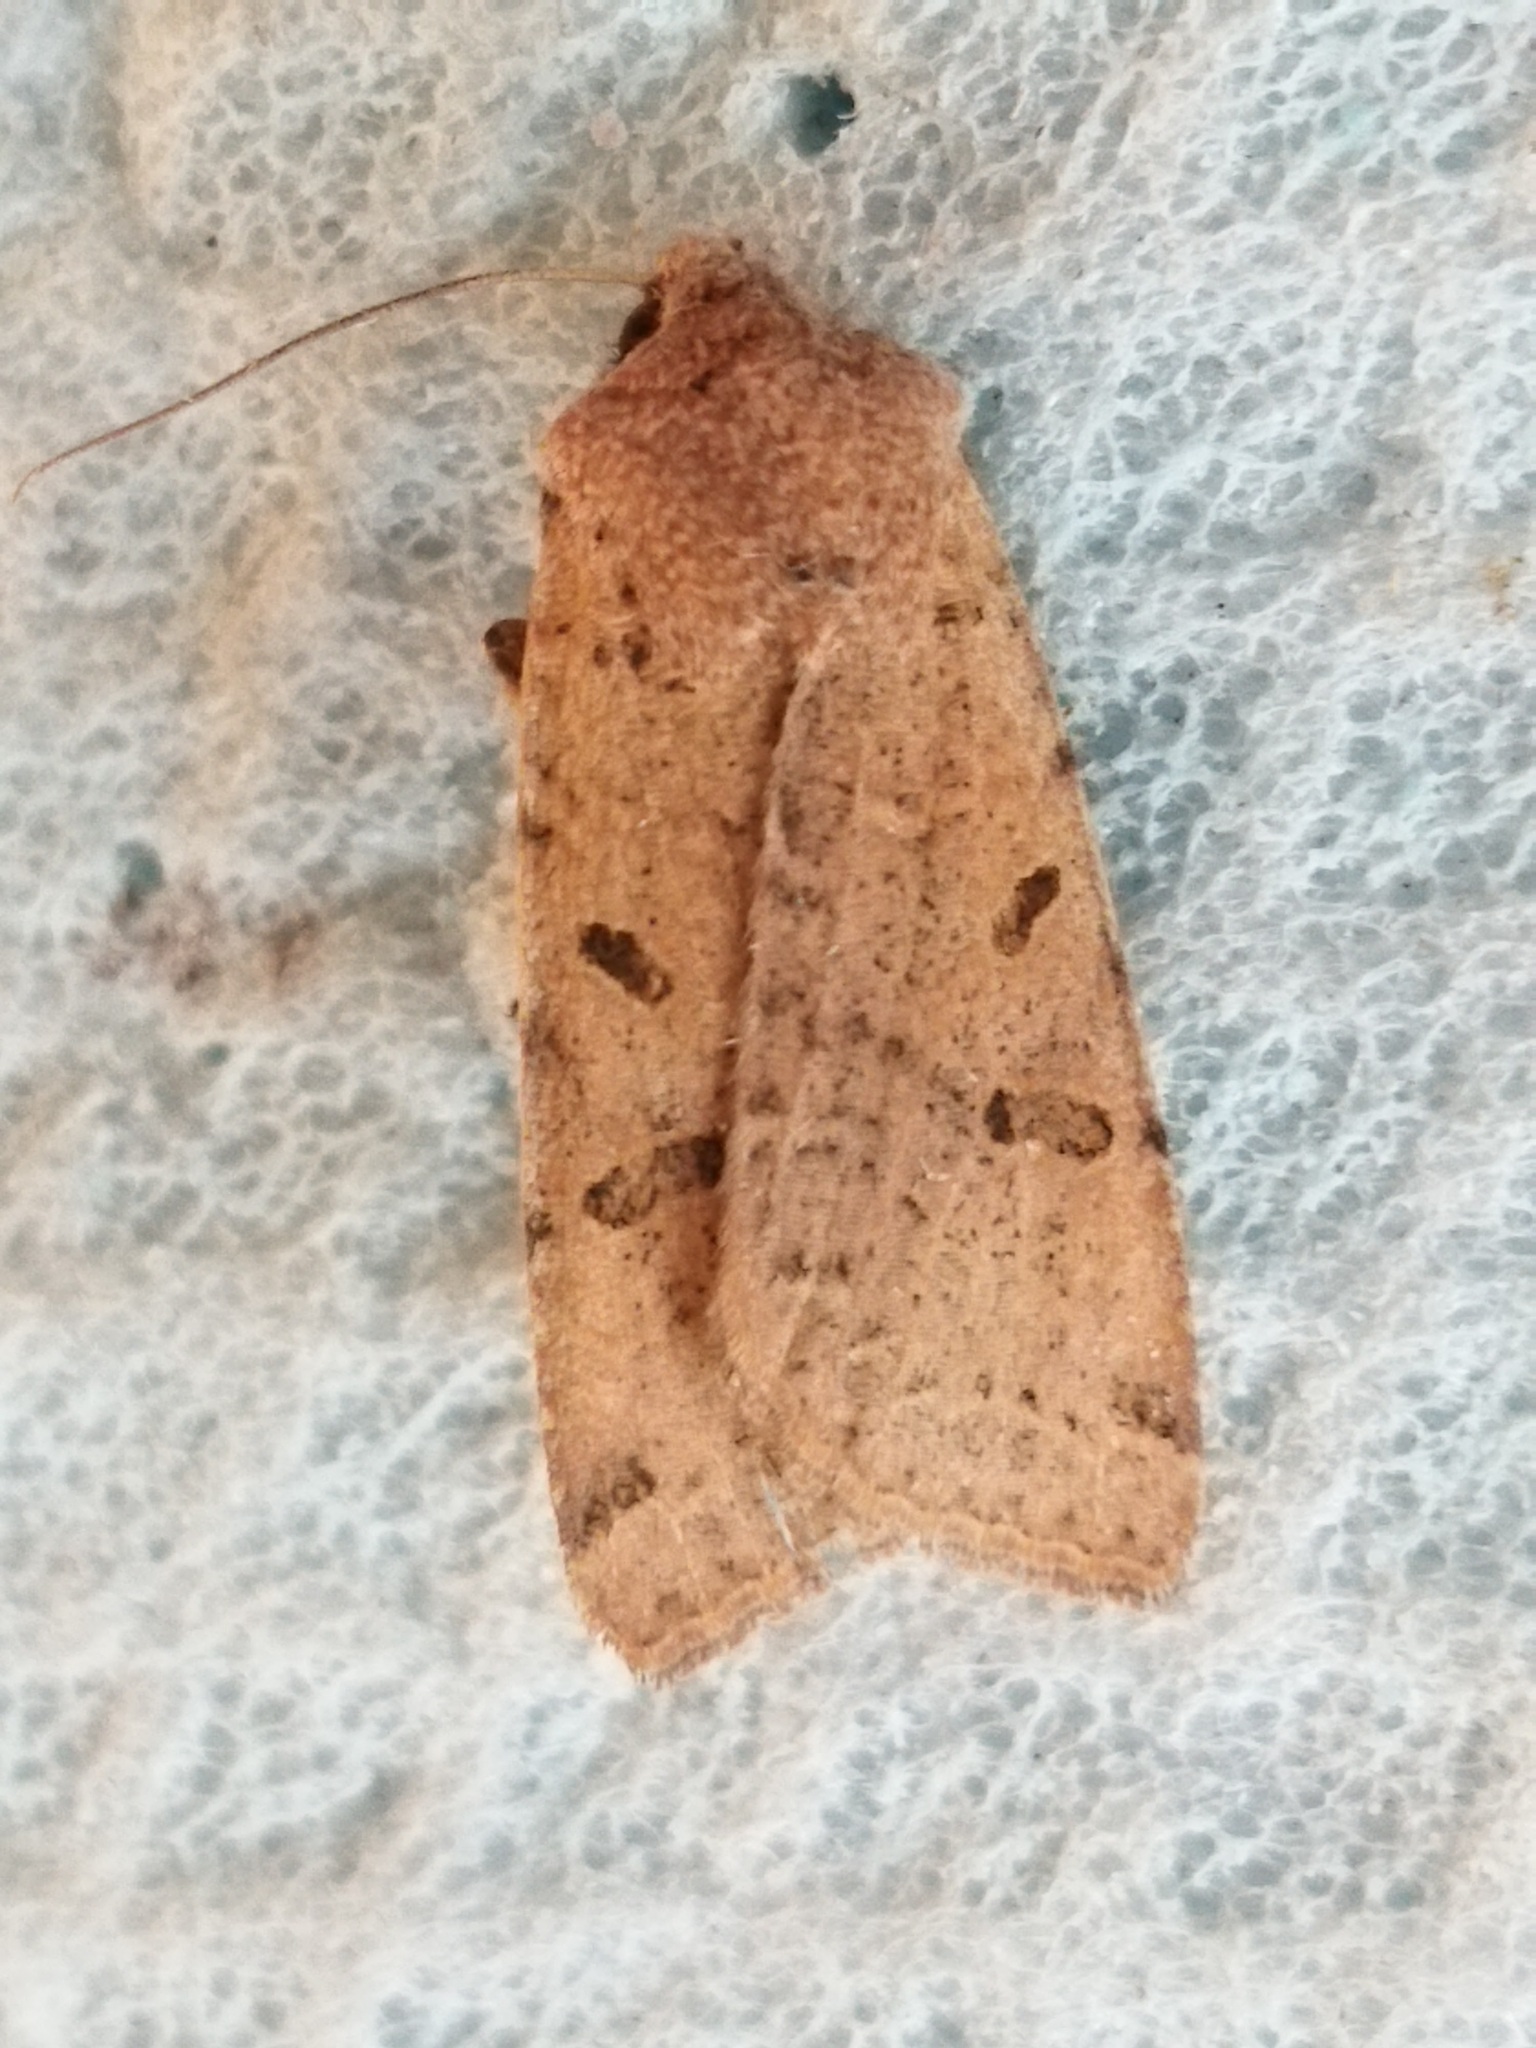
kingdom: Animalia
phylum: Arthropoda
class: Insecta
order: Lepidoptera
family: Noctuidae
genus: Agrochola
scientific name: Agrochola lychnidis
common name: Beaded chestnut
